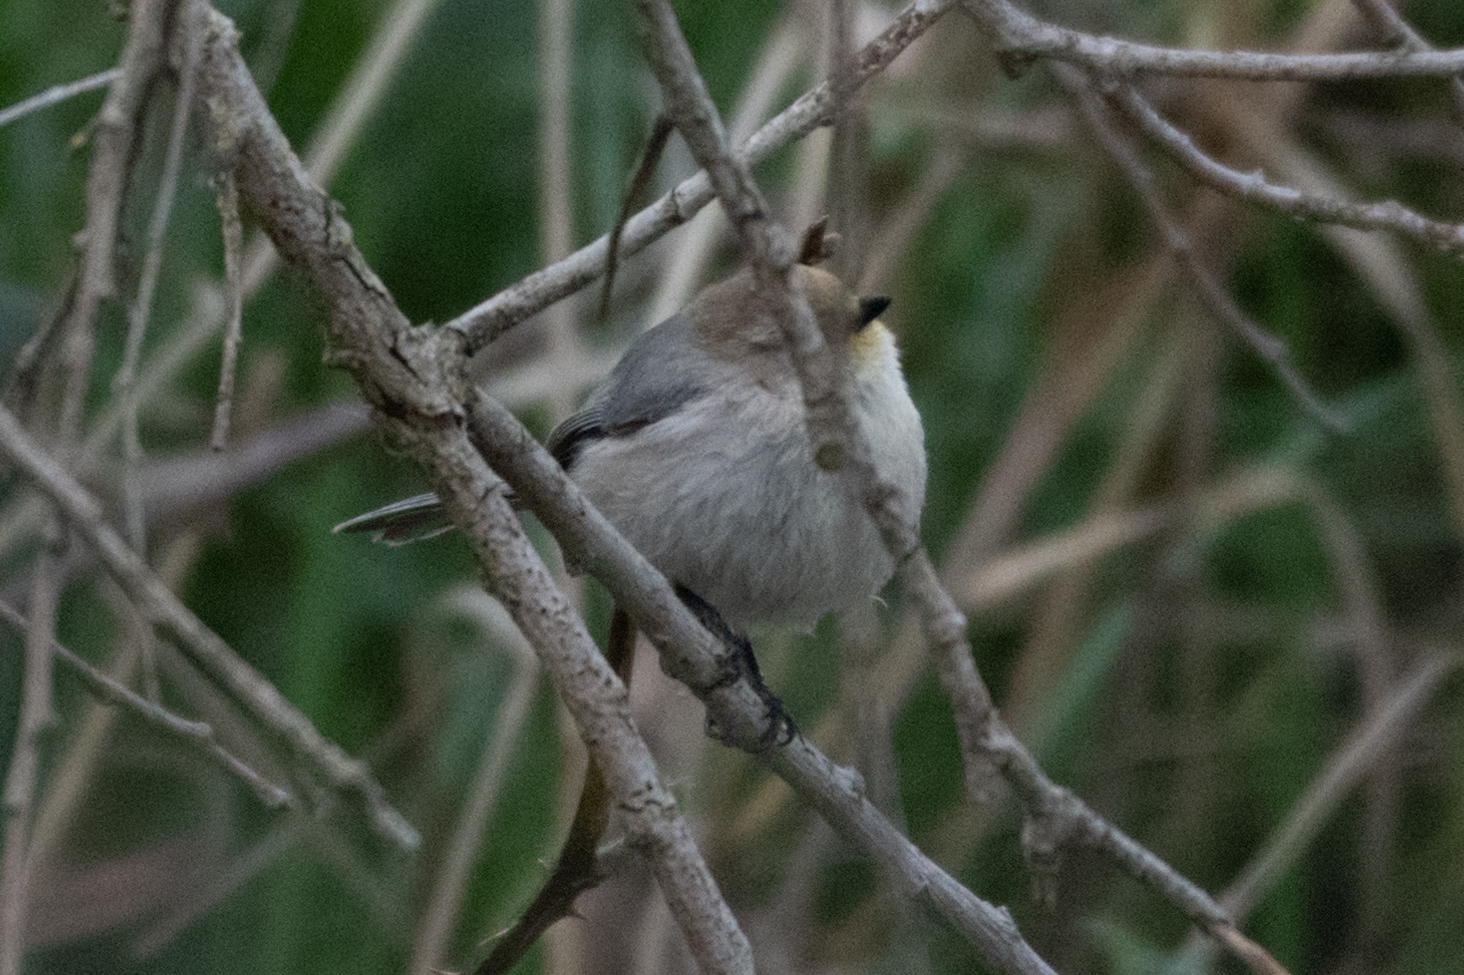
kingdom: Animalia
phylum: Chordata
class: Aves
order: Passeriformes
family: Aegithalidae
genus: Psaltriparus
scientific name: Psaltriparus minimus
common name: American bushtit
